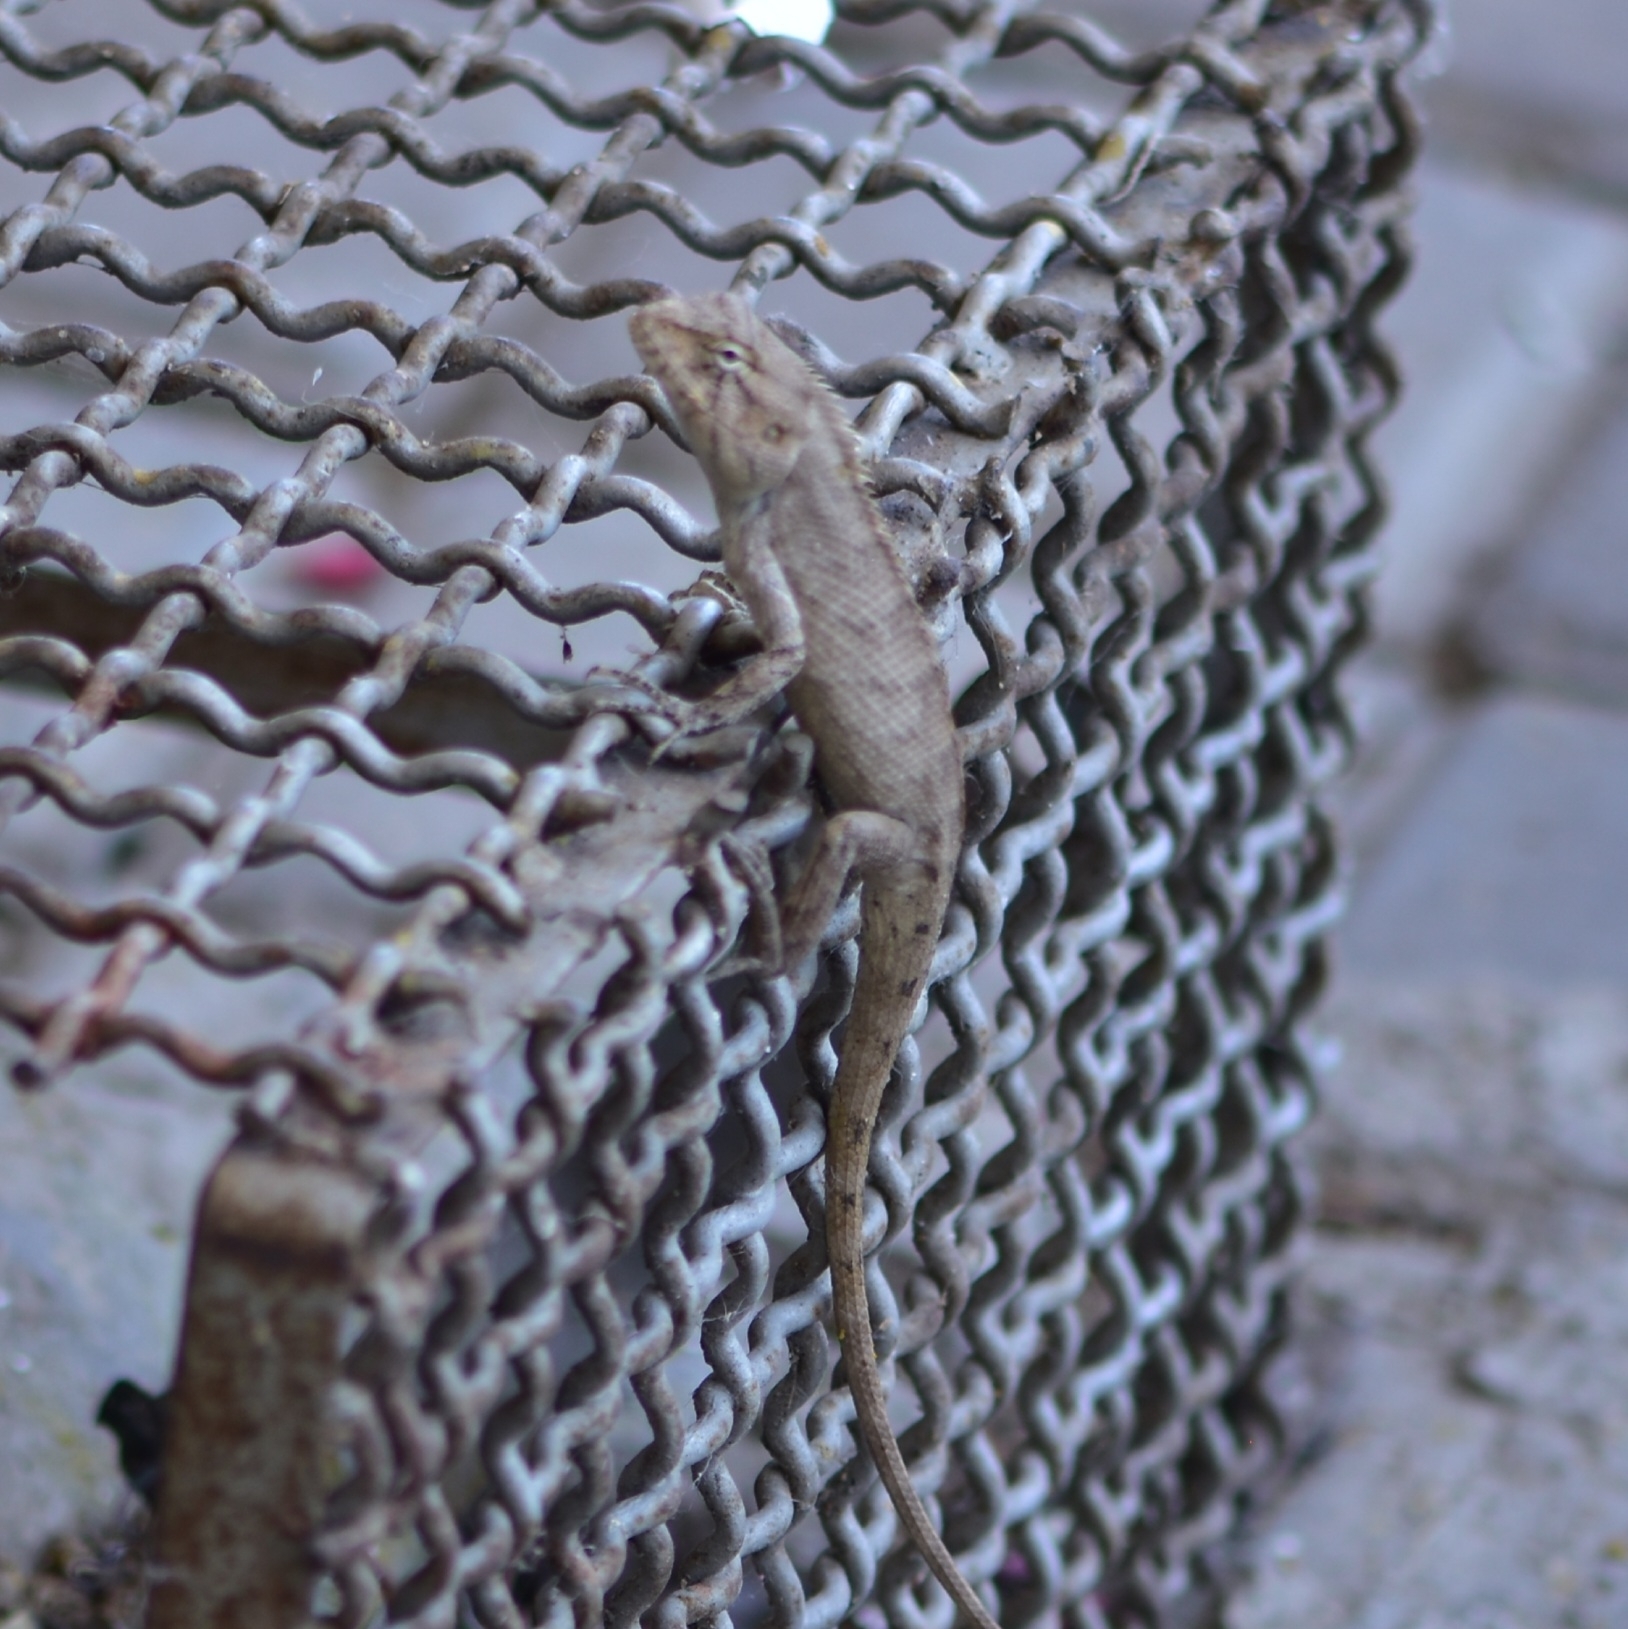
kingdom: Animalia
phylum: Chordata
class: Squamata
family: Agamidae
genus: Calotes
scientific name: Calotes versicolor
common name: Oriental garden lizard
